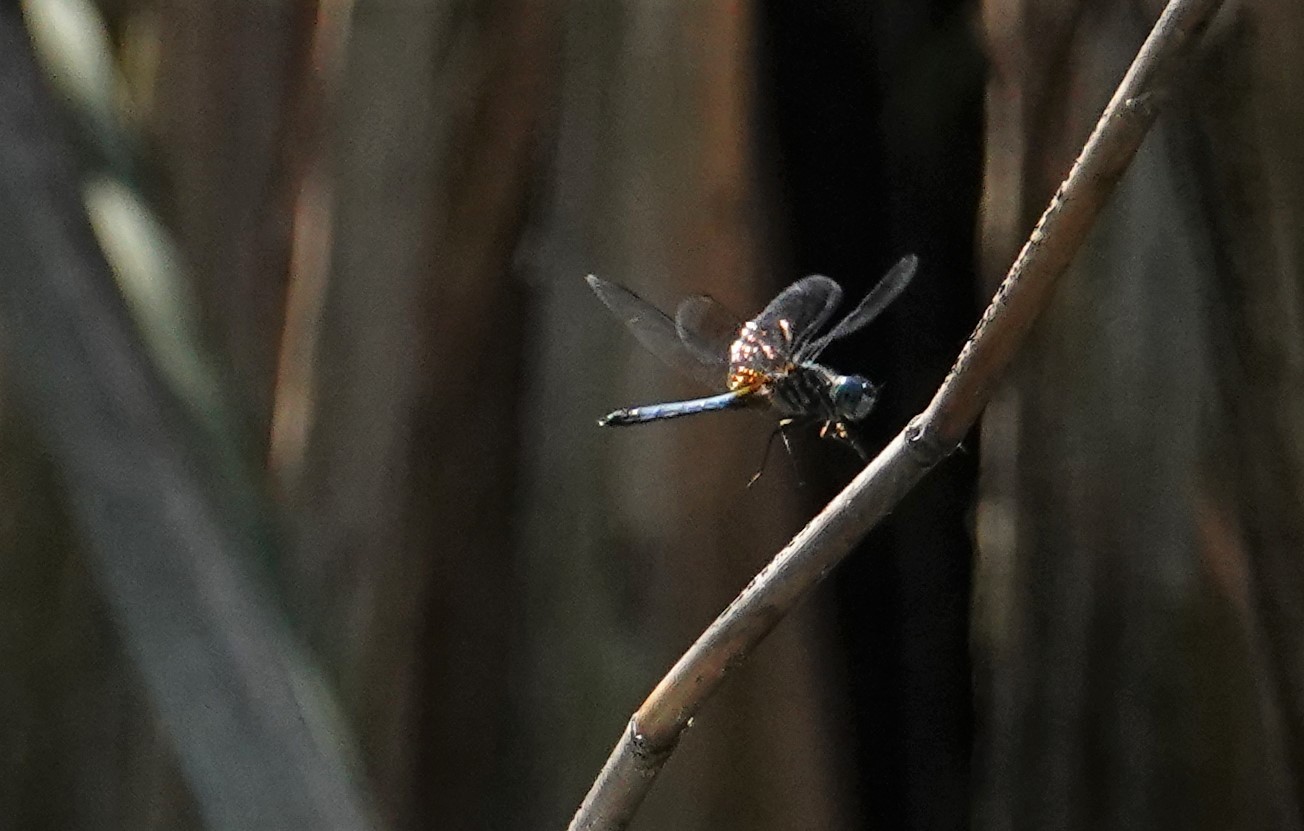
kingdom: Animalia
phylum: Arthropoda
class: Insecta
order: Odonata
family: Libellulidae
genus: Pachydiplax
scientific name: Pachydiplax longipennis
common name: Blue dasher
